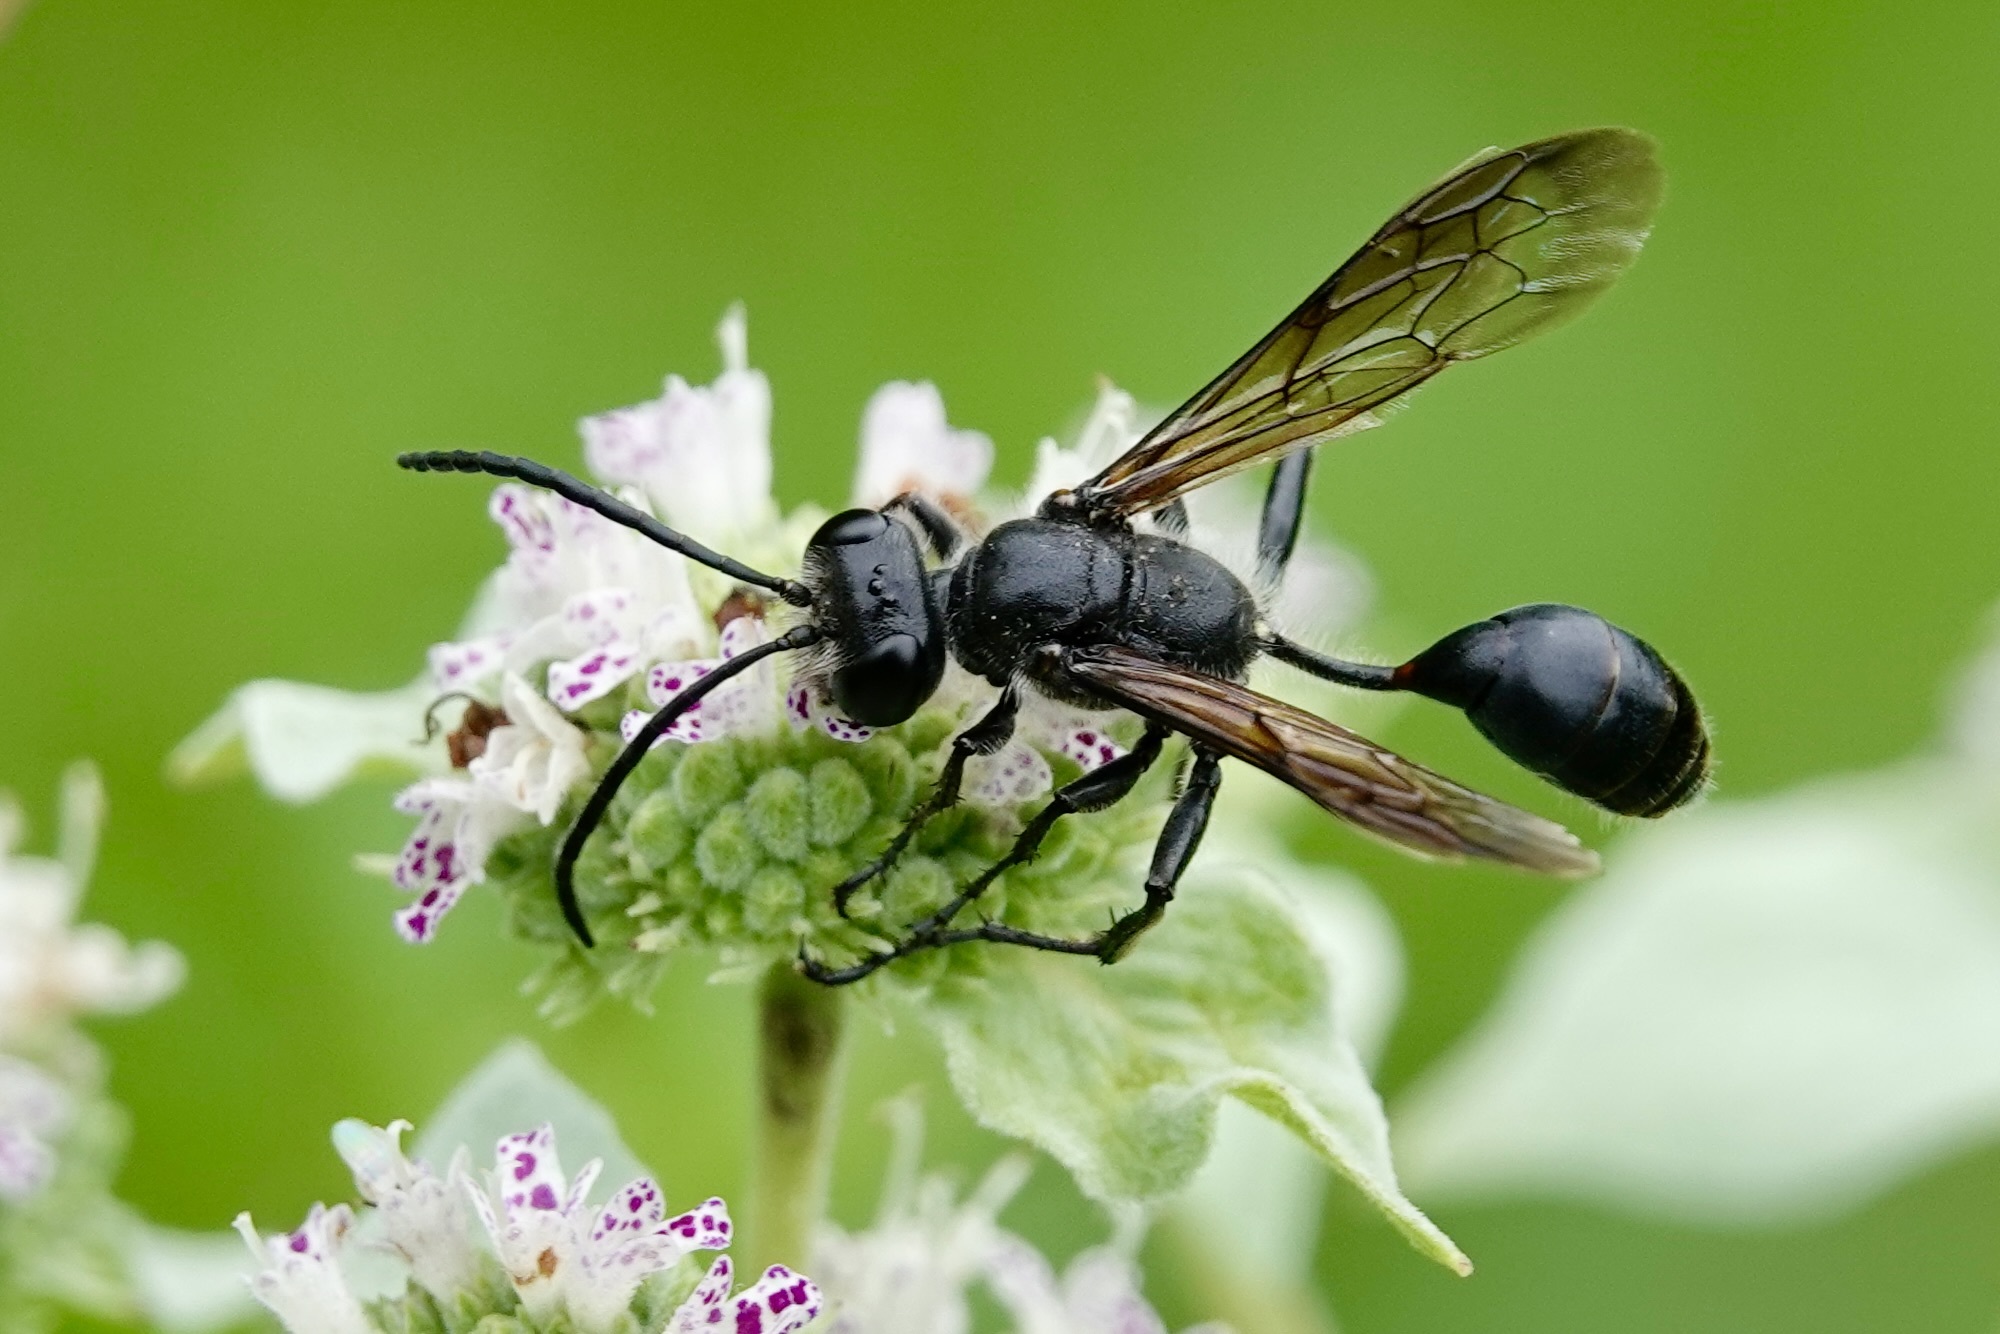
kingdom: Animalia
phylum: Arthropoda
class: Insecta
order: Hymenoptera
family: Sphecidae
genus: Isodontia
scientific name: Isodontia mexicana
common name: Mud dauber
